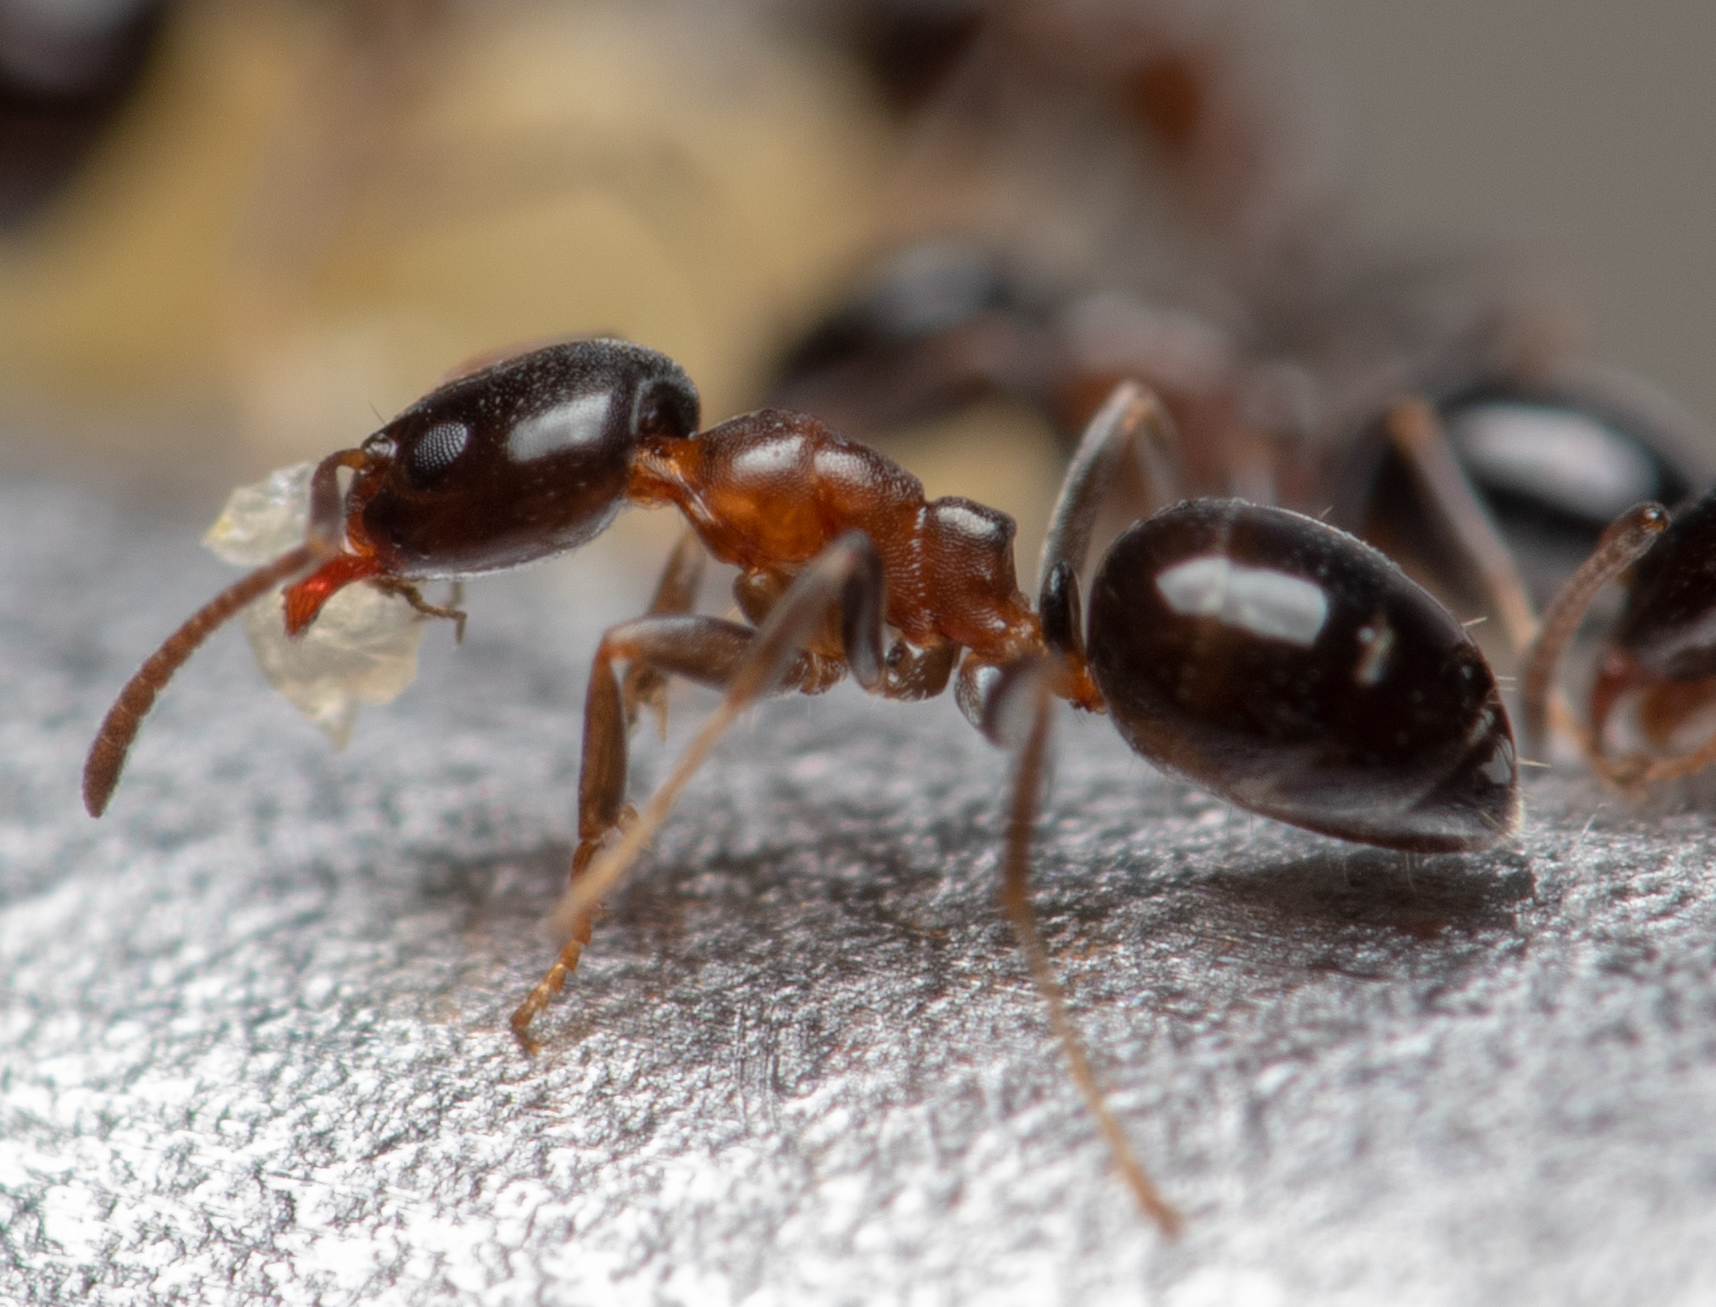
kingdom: Animalia
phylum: Arthropoda
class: Insecta
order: Hymenoptera
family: Formicidae
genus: Ochetellus
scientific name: Ochetellus glaber
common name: Ant
